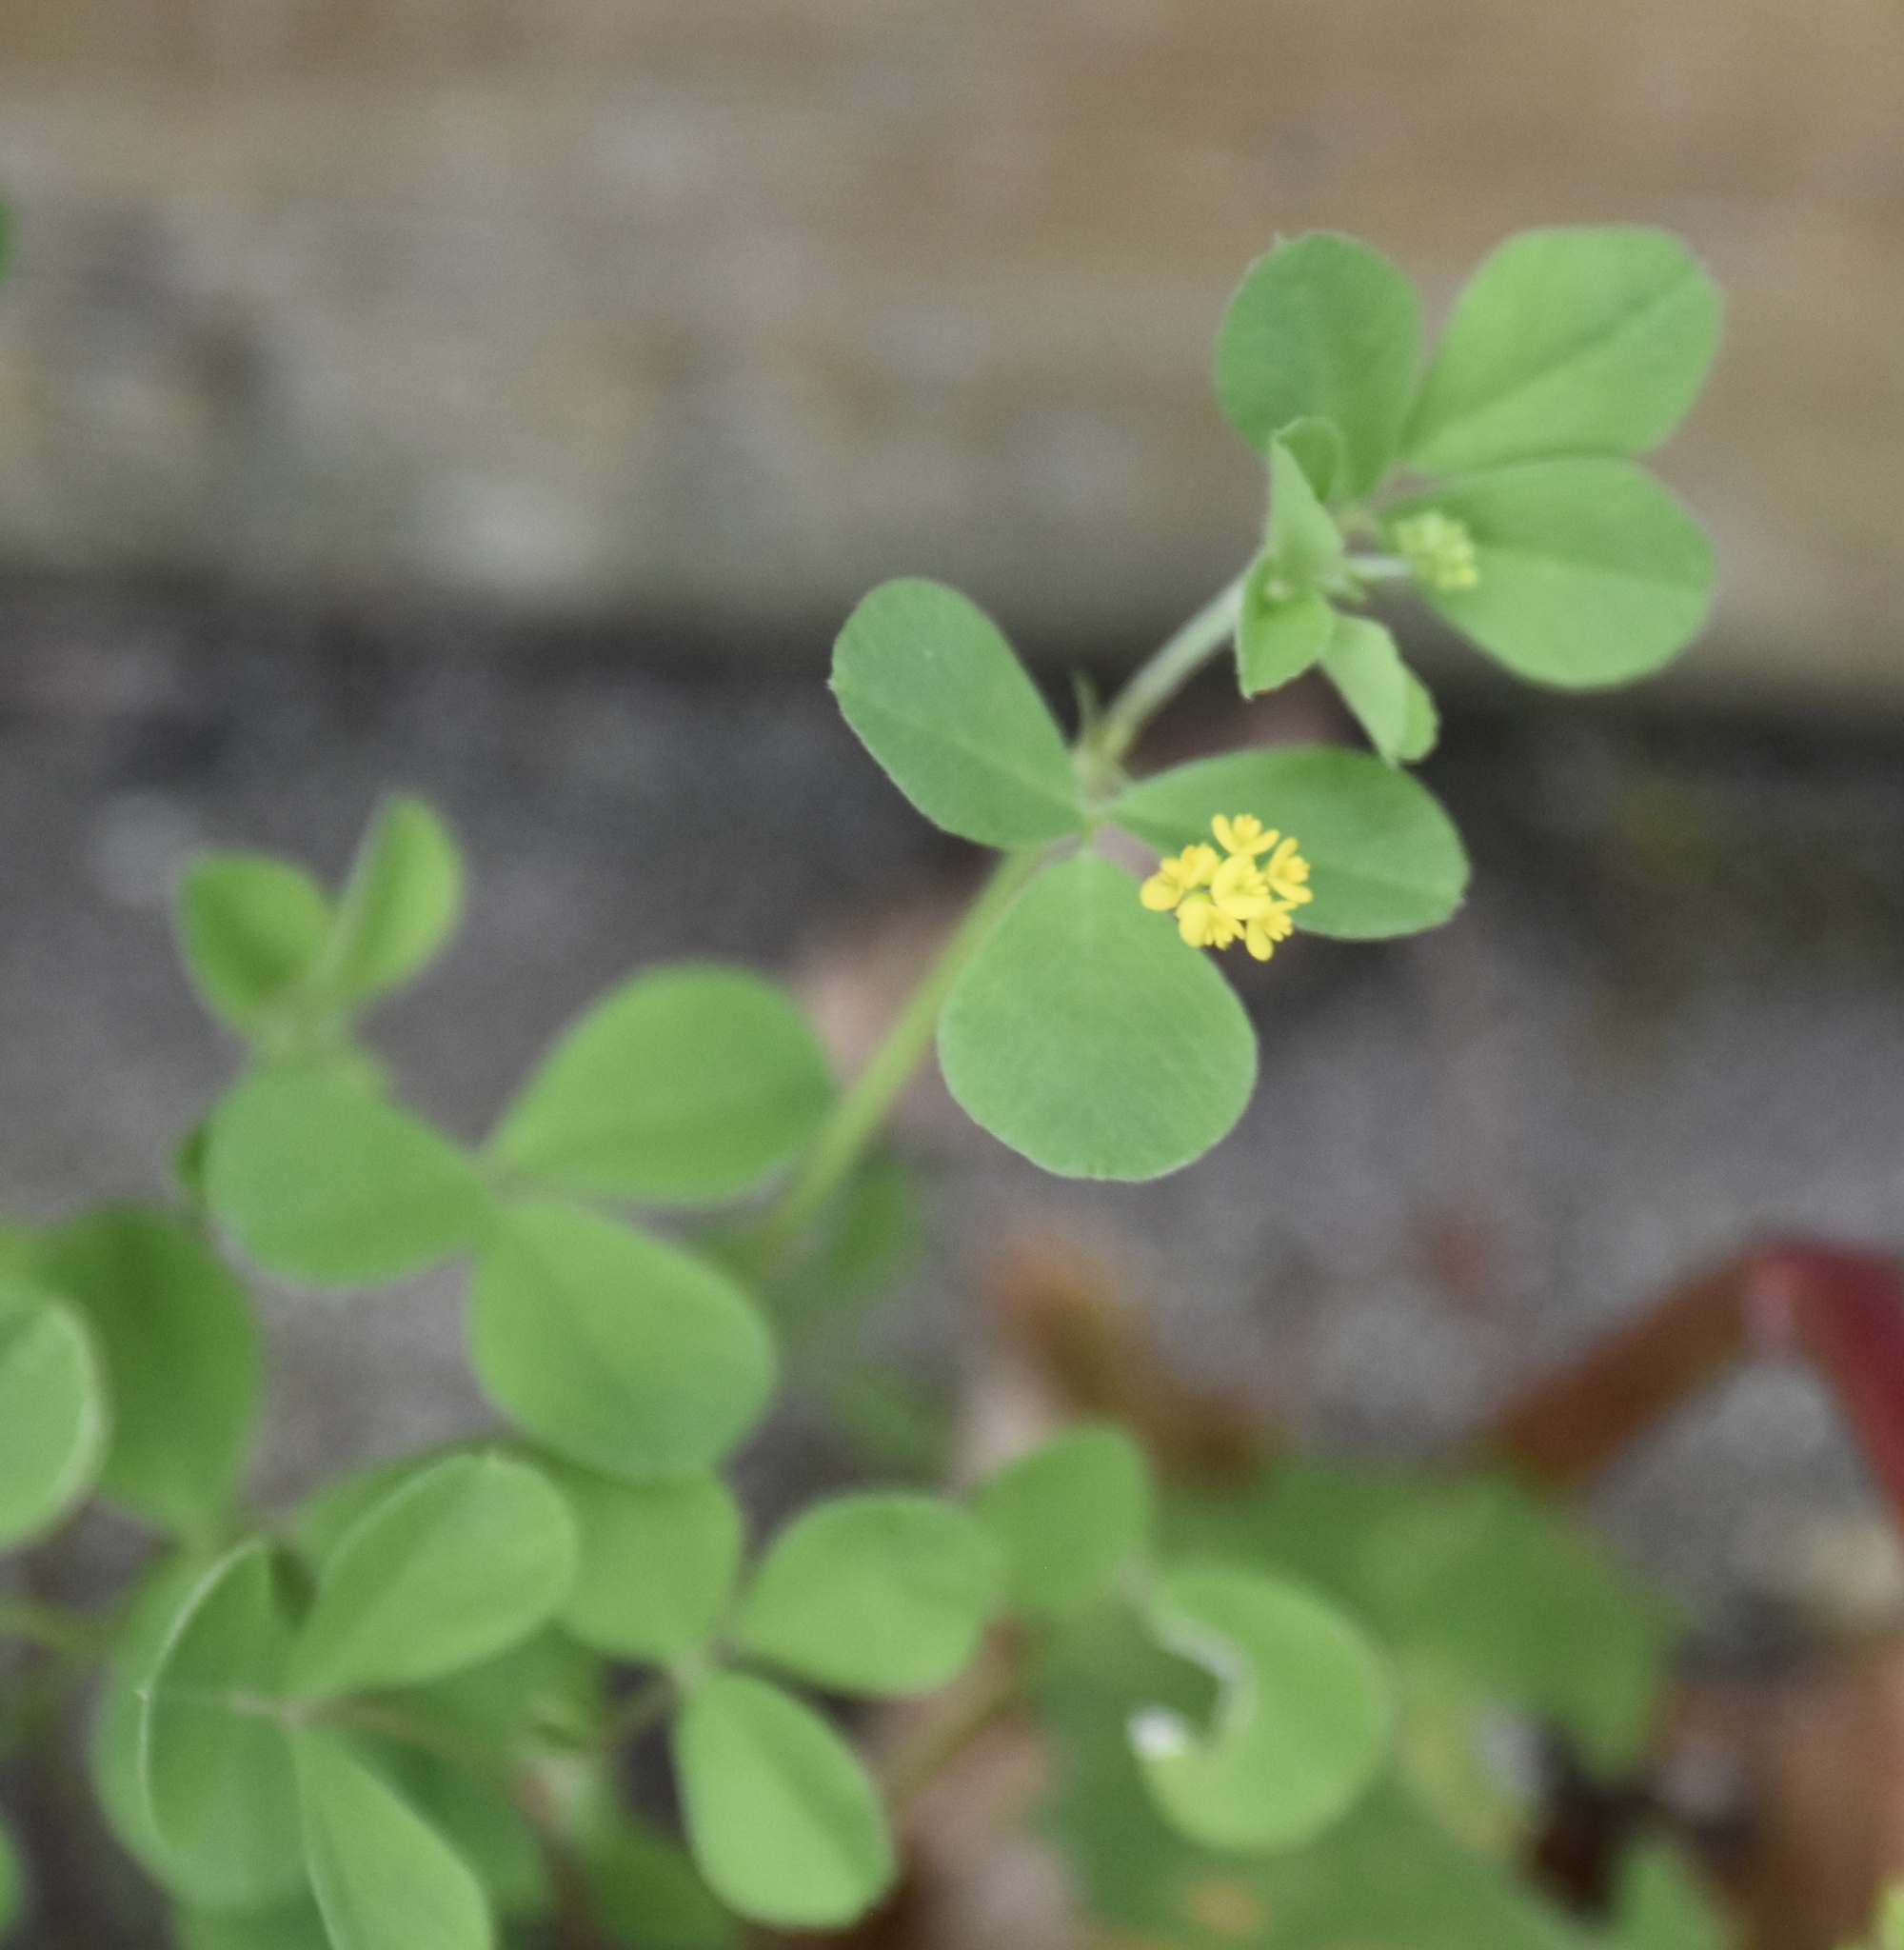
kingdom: Plantae
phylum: Tracheophyta
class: Magnoliopsida
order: Fabales
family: Fabaceae
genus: Medicago
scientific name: Medicago lupulina
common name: Black medick
